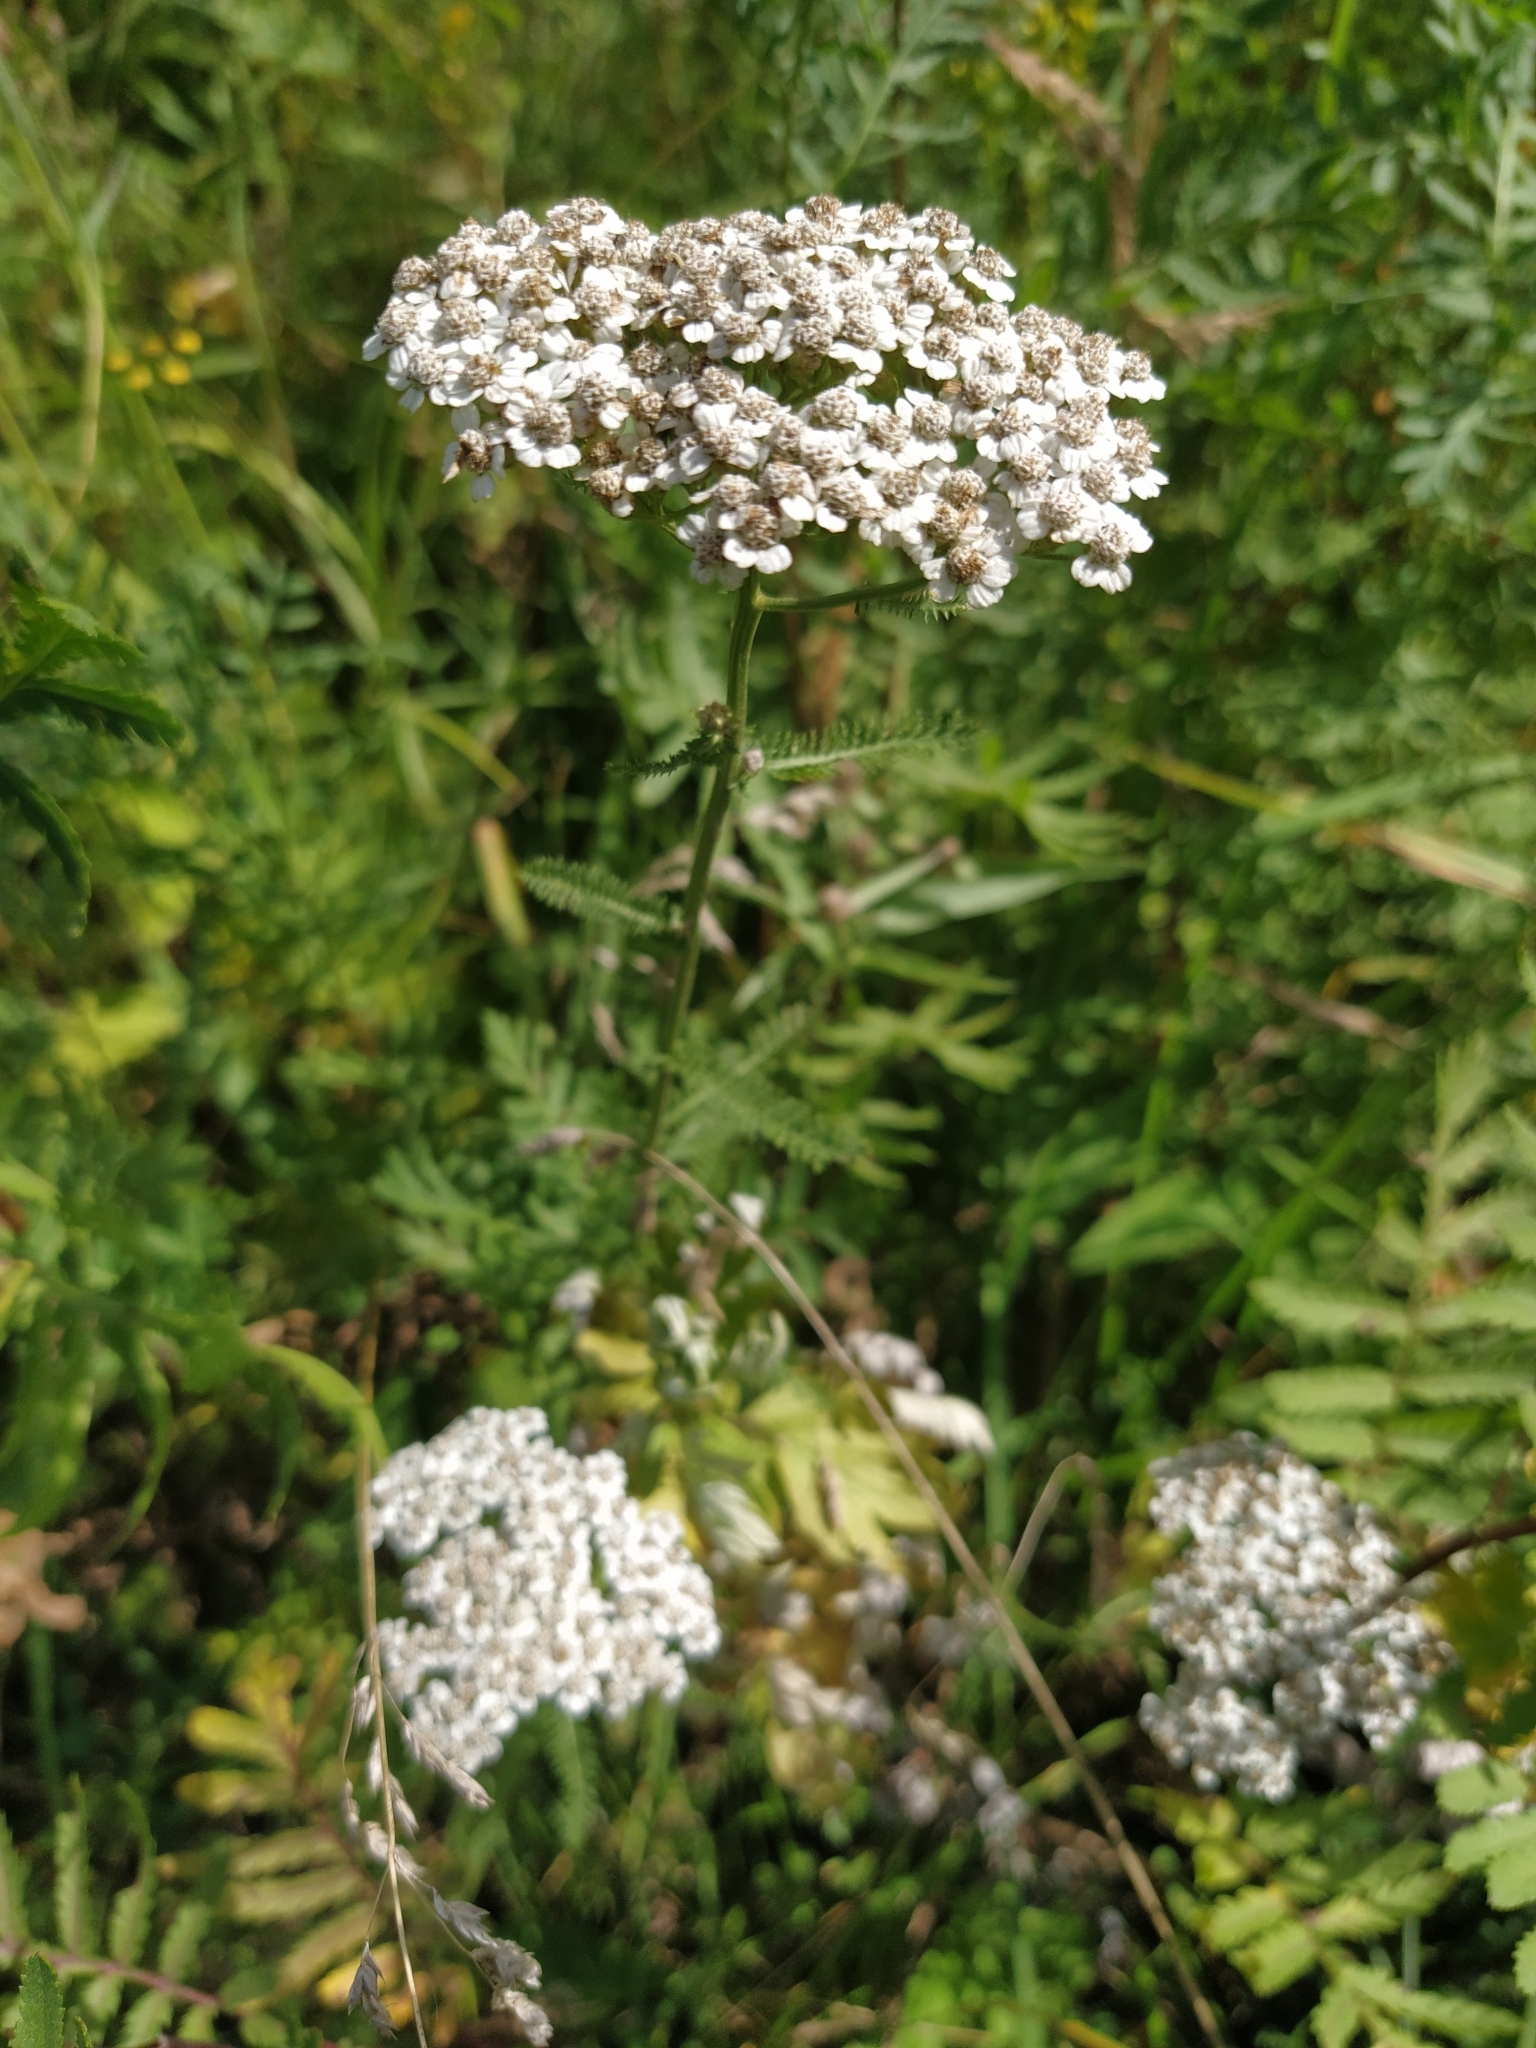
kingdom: Plantae
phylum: Tracheophyta
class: Magnoliopsida
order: Asterales
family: Asteraceae
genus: Achillea
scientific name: Achillea millefolium
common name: Yarrow
